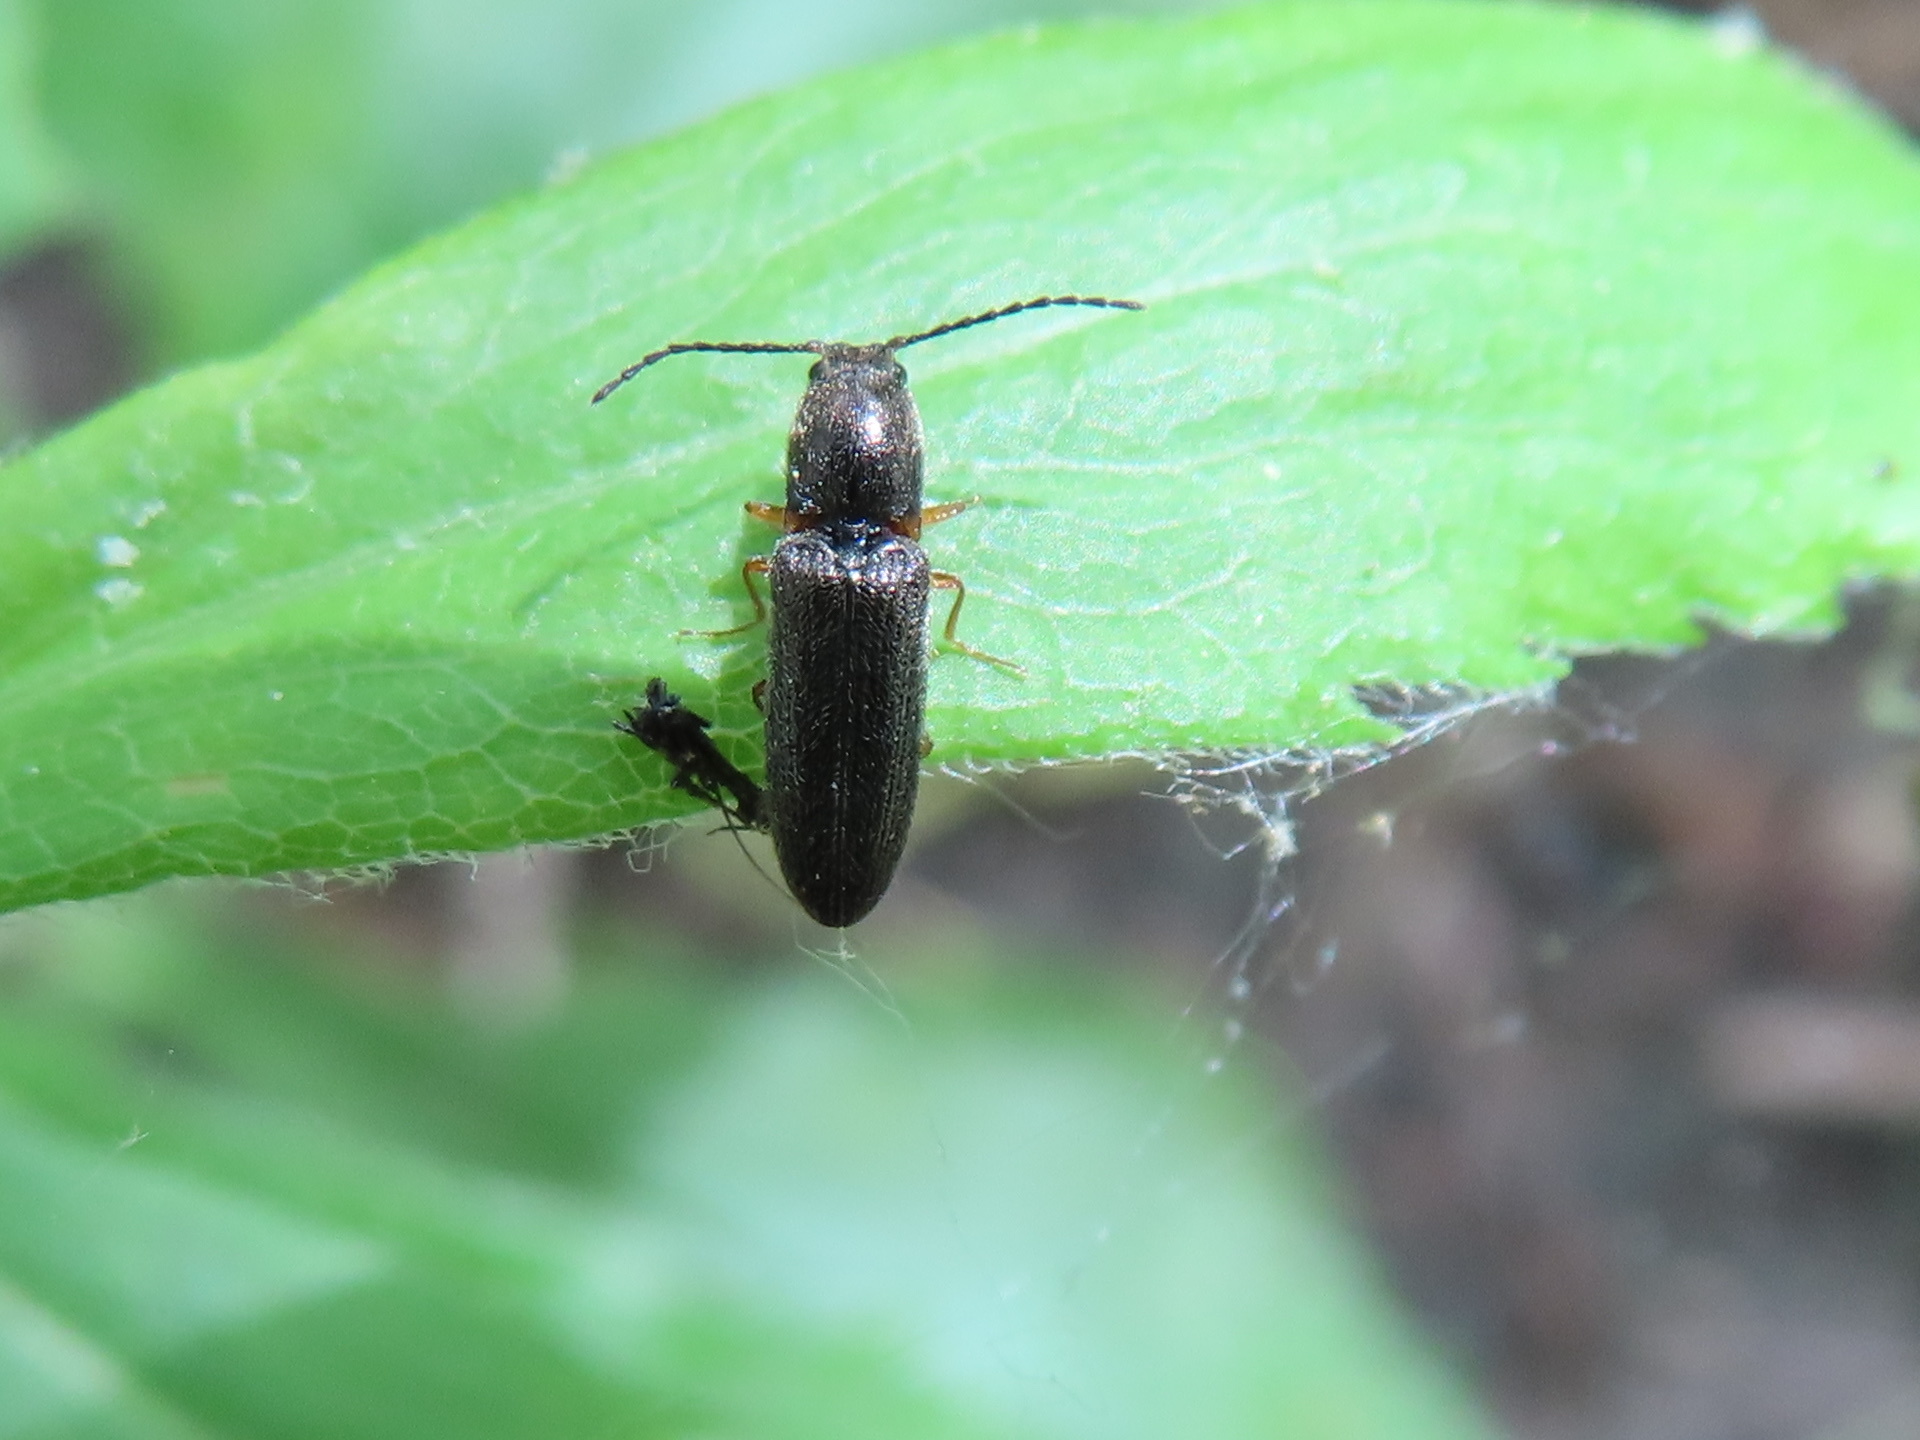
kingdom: Animalia
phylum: Arthropoda
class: Insecta
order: Coleoptera
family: Elateridae
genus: Limonius
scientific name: Limonius basilaris
